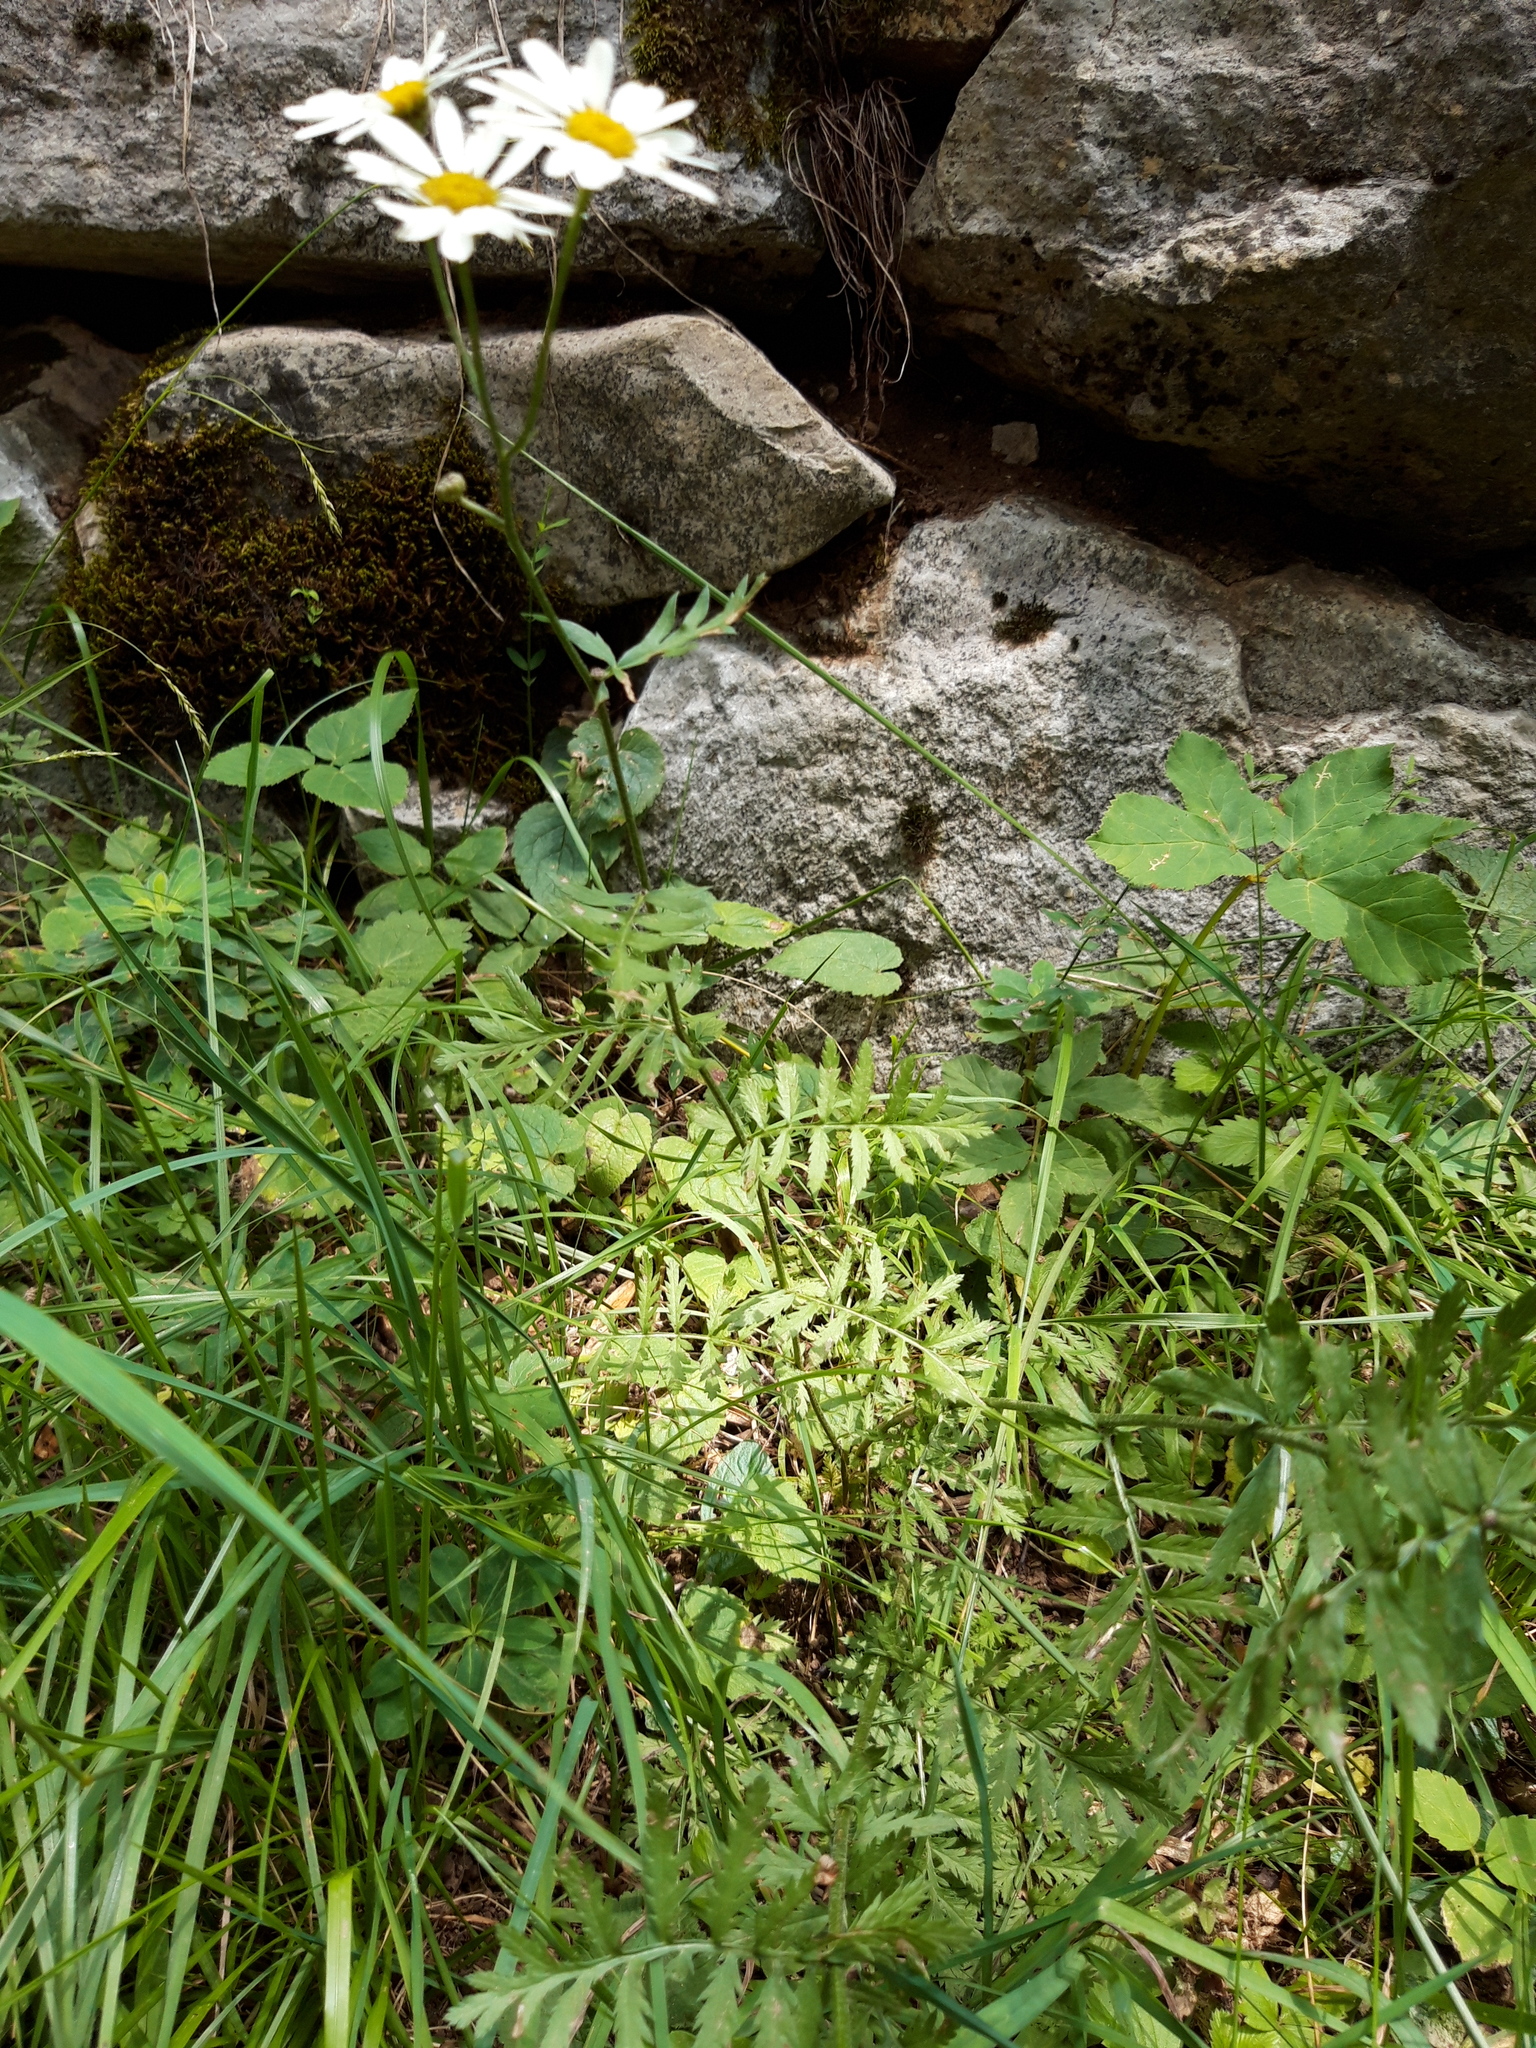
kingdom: Plantae
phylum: Tracheophyta
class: Magnoliopsida
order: Asterales
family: Asteraceae
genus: Tanacetum
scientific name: Tanacetum corymbosum
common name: Scentless feverfew
